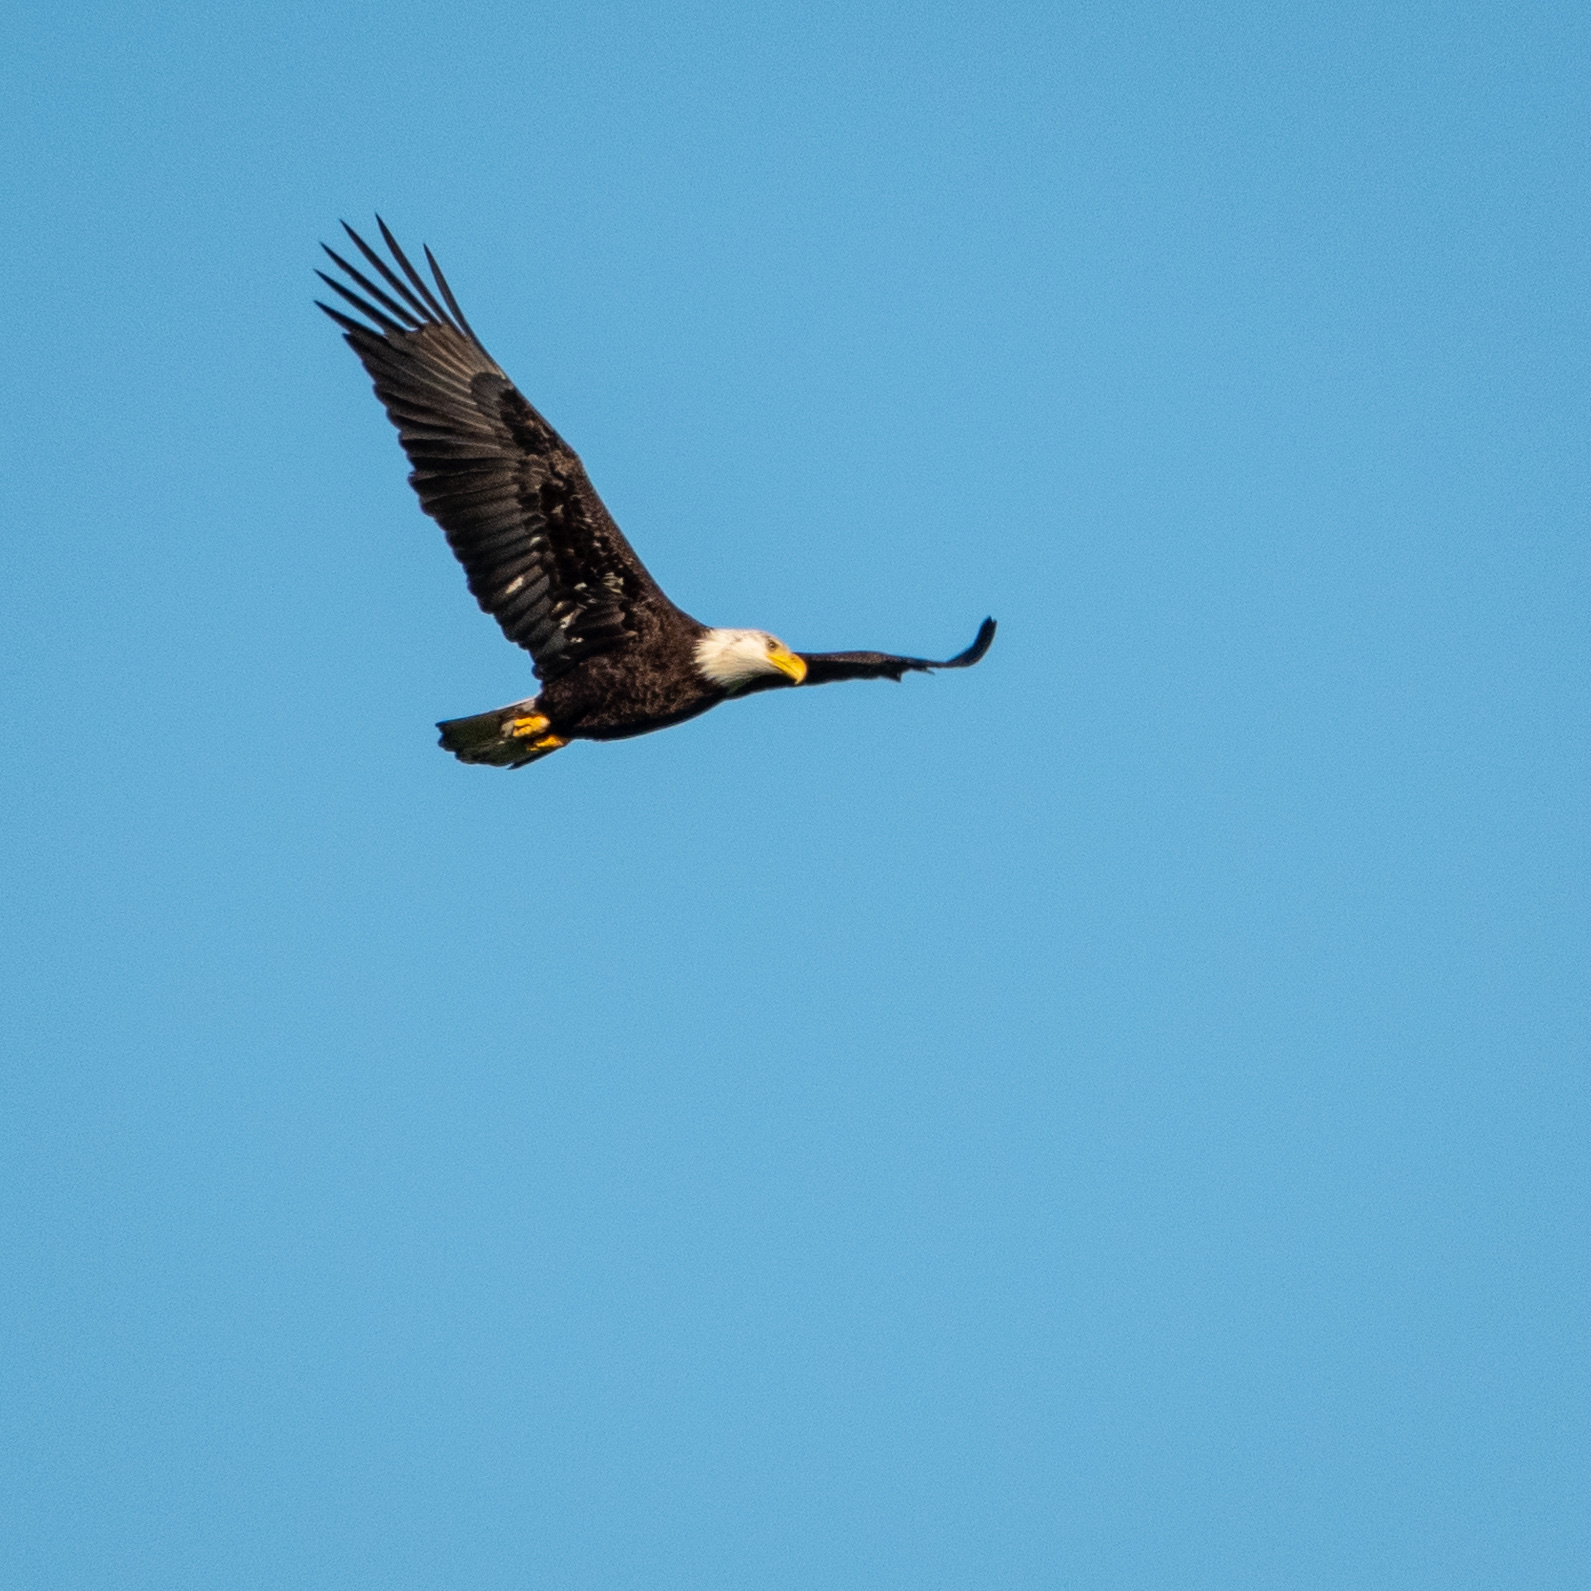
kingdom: Animalia
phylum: Chordata
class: Aves
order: Accipitriformes
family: Accipitridae
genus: Haliaeetus
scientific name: Haliaeetus leucocephalus
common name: Bald eagle
